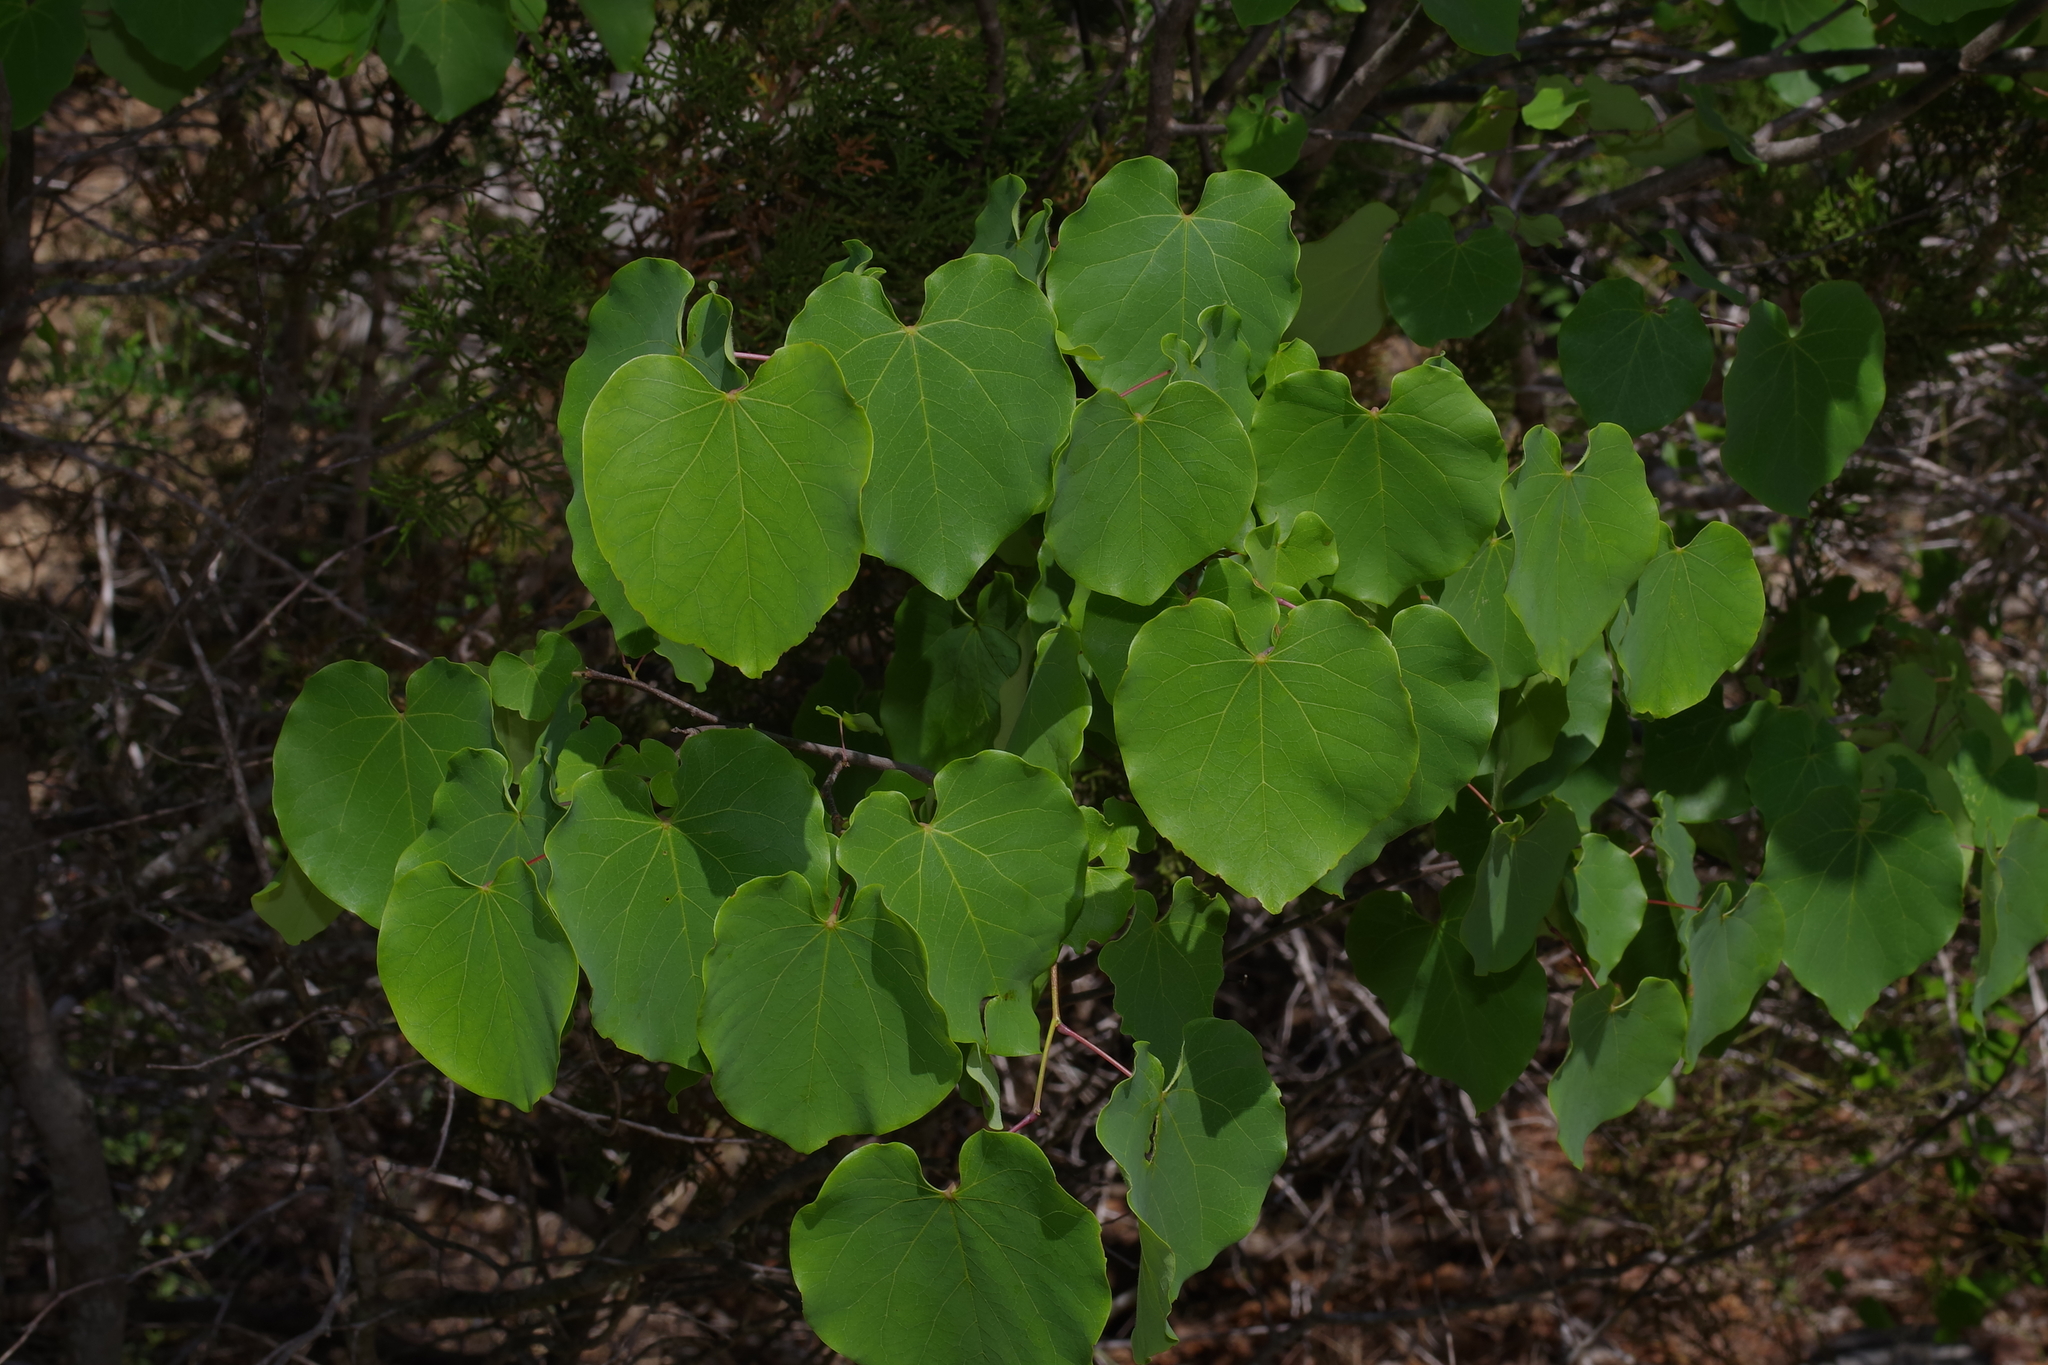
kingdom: Plantae
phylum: Tracheophyta
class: Magnoliopsida
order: Fabales
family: Fabaceae
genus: Cercis
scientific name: Cercis canadensis
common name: Eastern redbud
